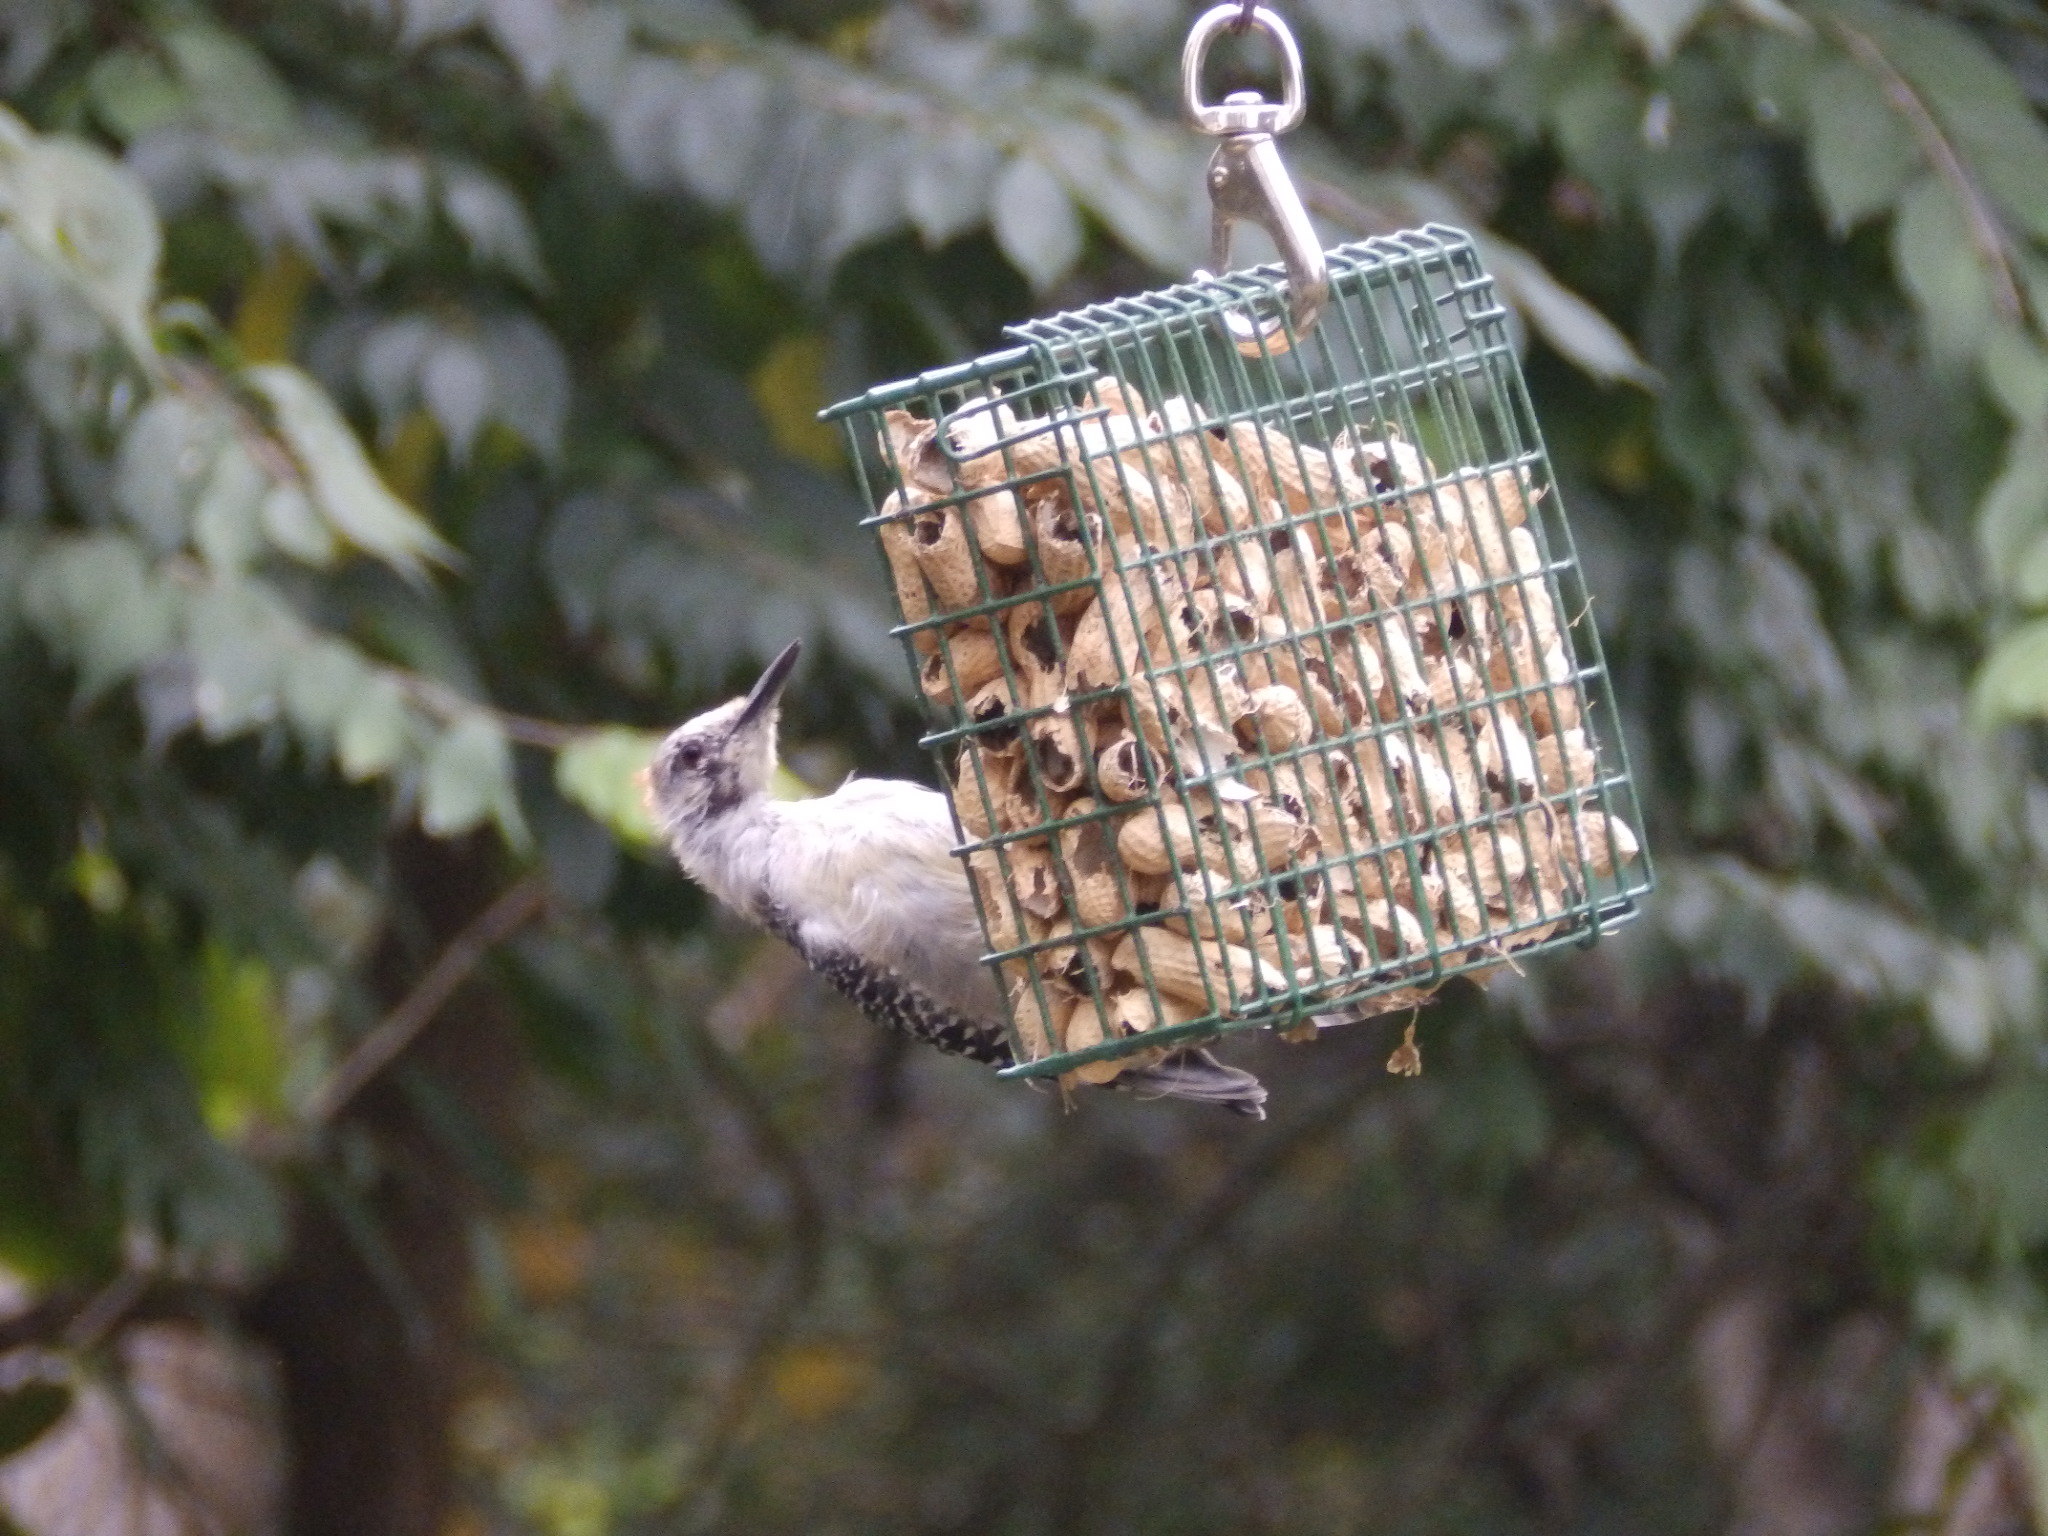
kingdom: Animalia
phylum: Chordata
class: Aves
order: Piciformes
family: Picidae
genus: Melanerpes
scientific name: Melanerpes carolinus
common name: Red-bellied woodpecker
